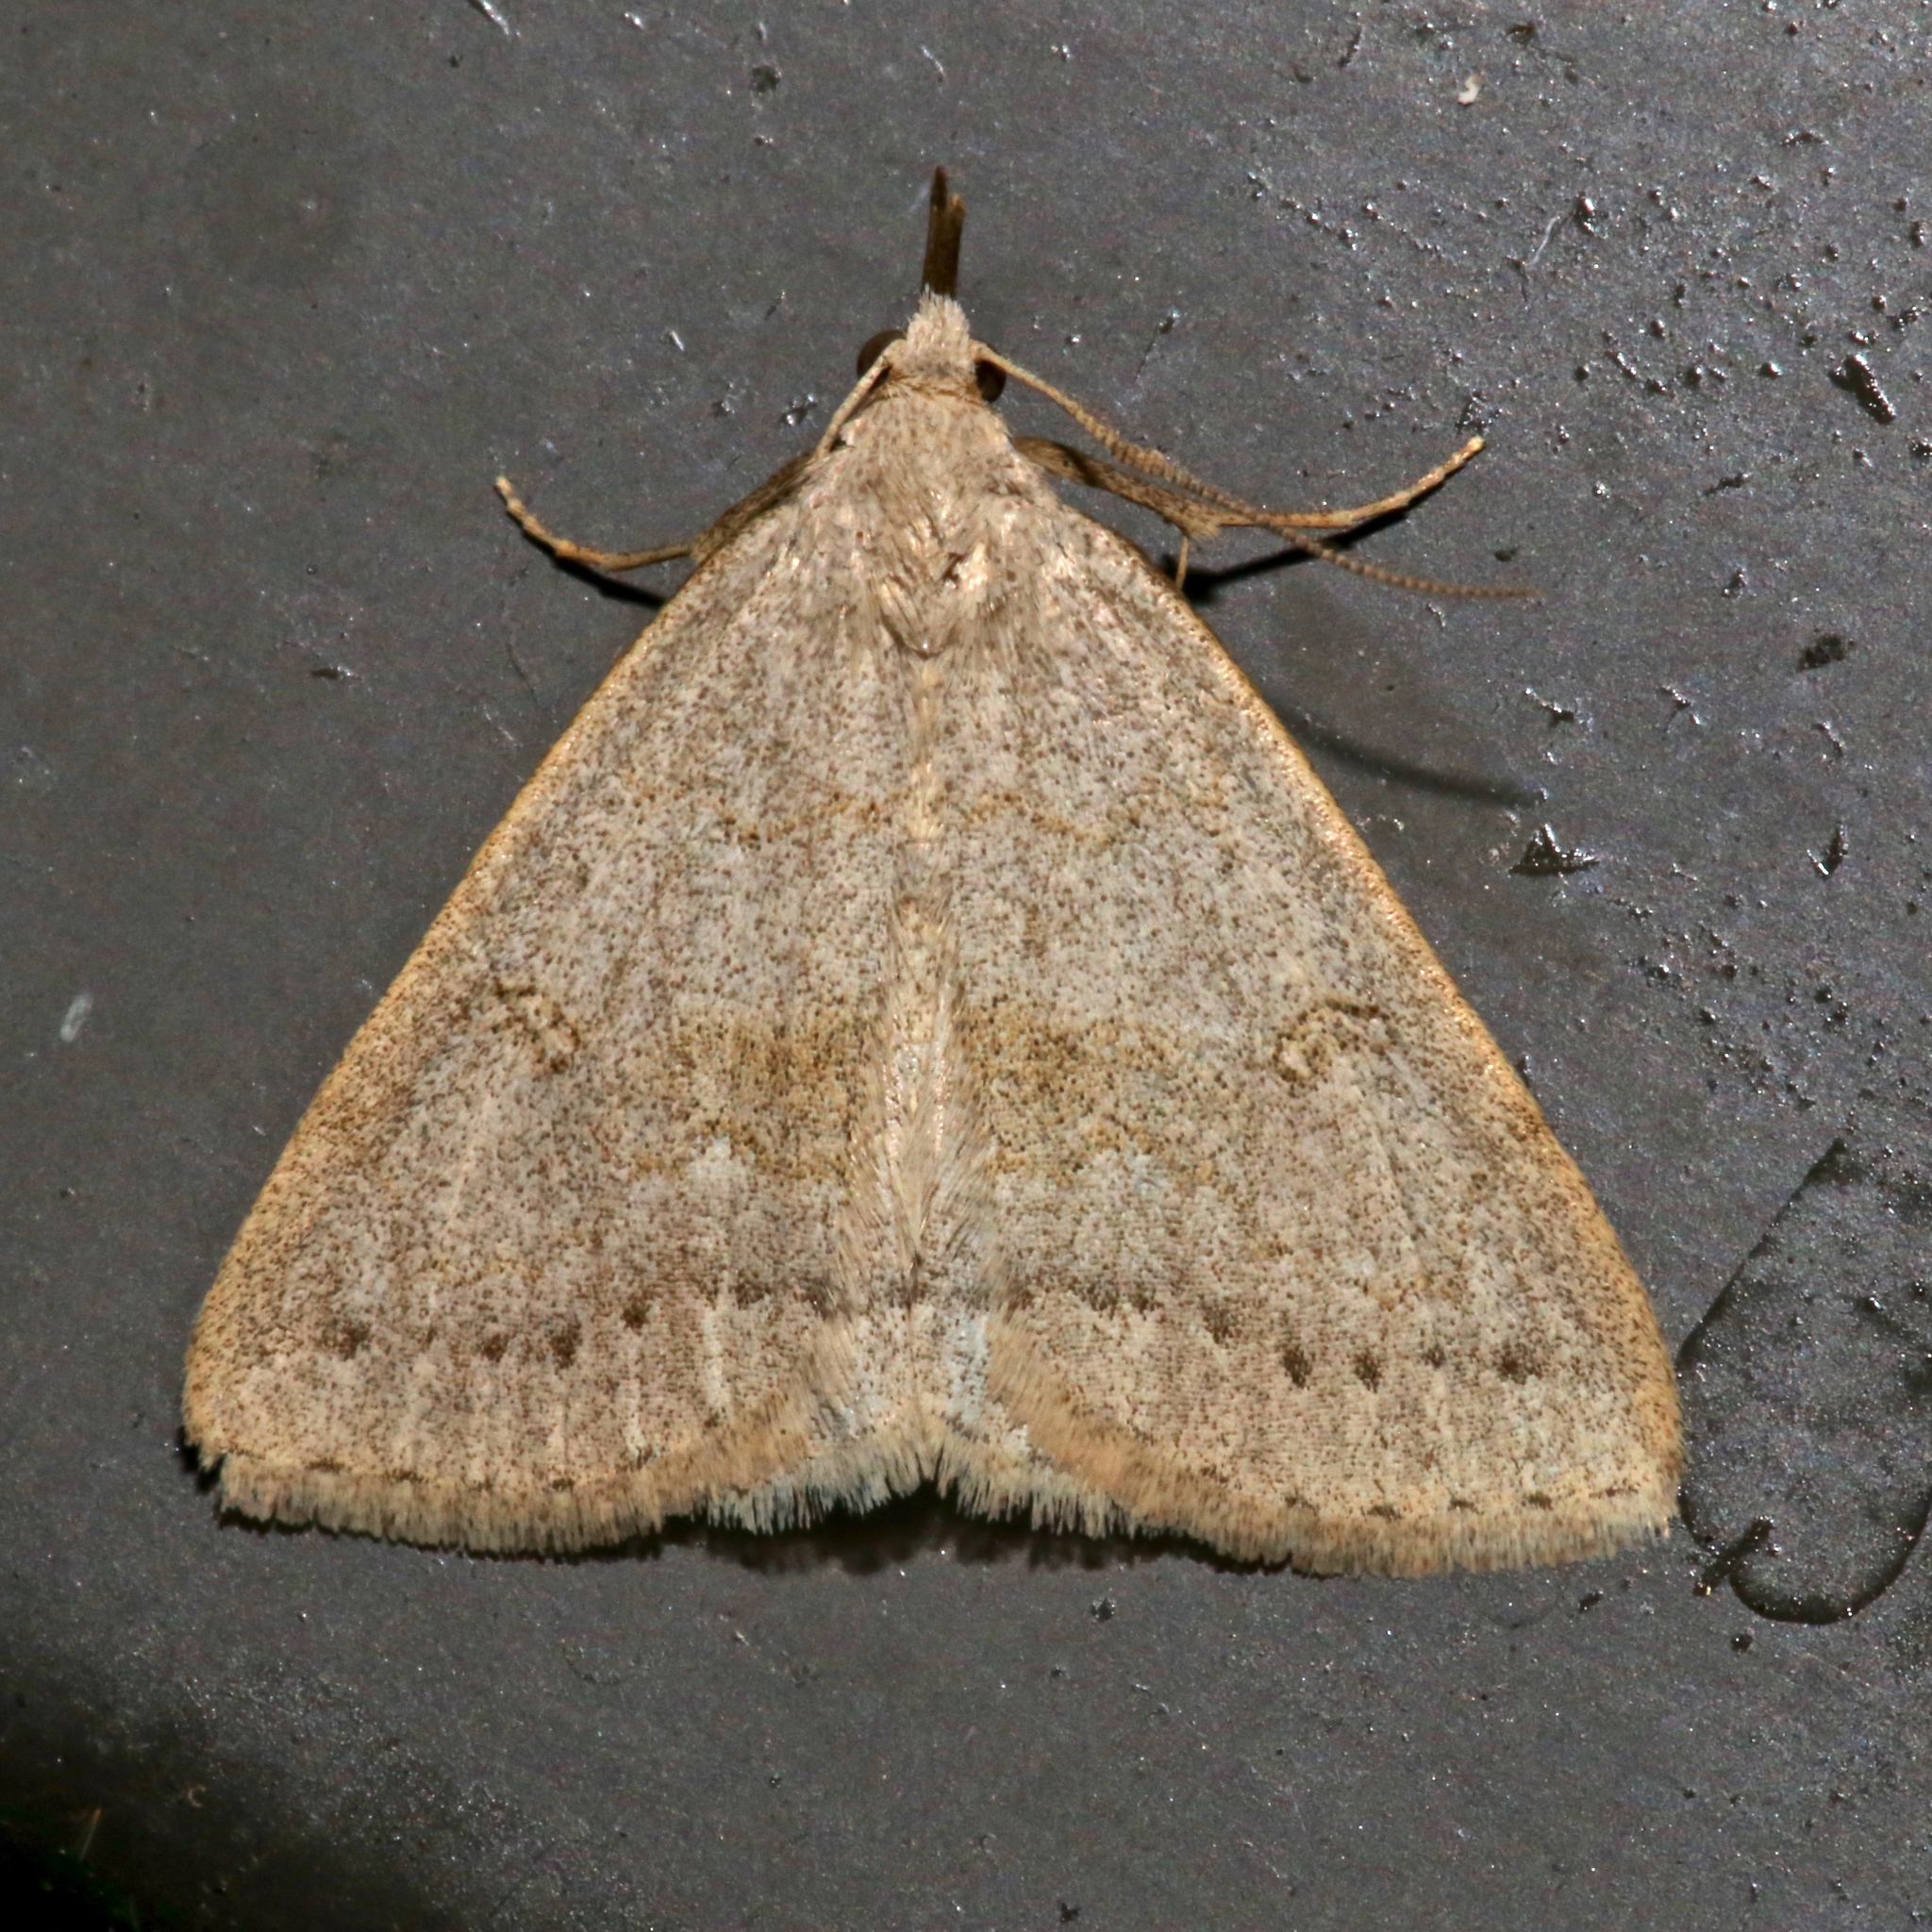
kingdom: Animalia
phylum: Arthropoda
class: Insecta
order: Lepidoptera
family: Erebidae
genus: Macrochilo
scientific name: Macrochilo morbidalis
